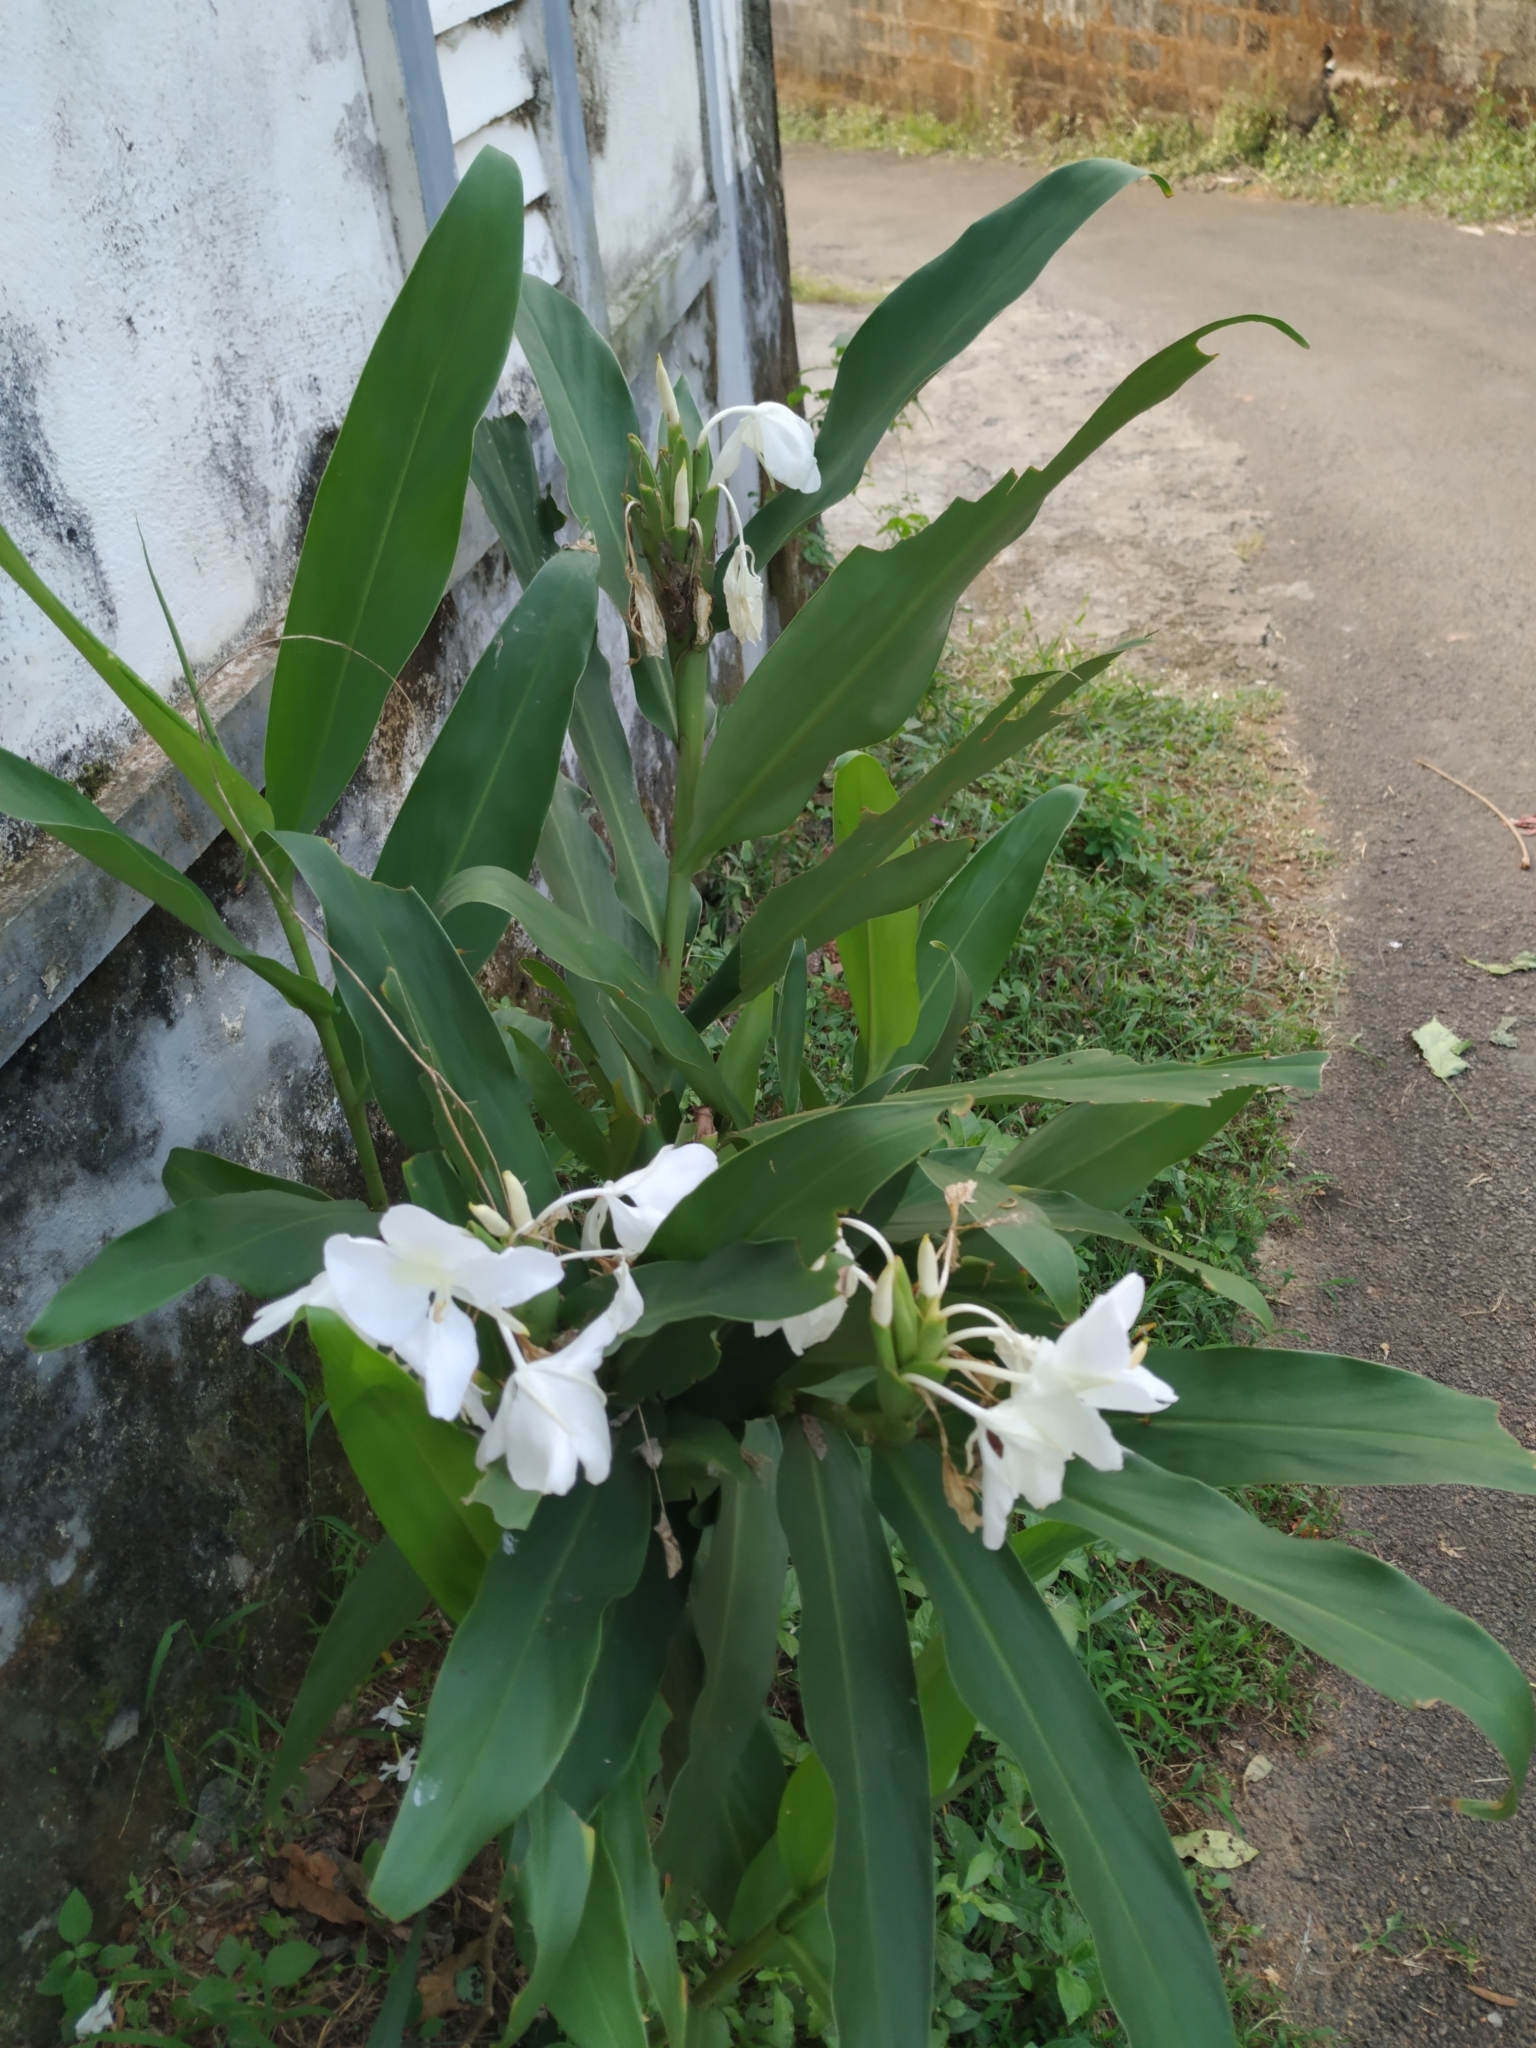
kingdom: Plantae
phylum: Tracheophyta
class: Liliopsida
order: Zingiberales
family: Zingiberaceae
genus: Hedychium
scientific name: Hedychium coronarium
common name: White garland-lily
